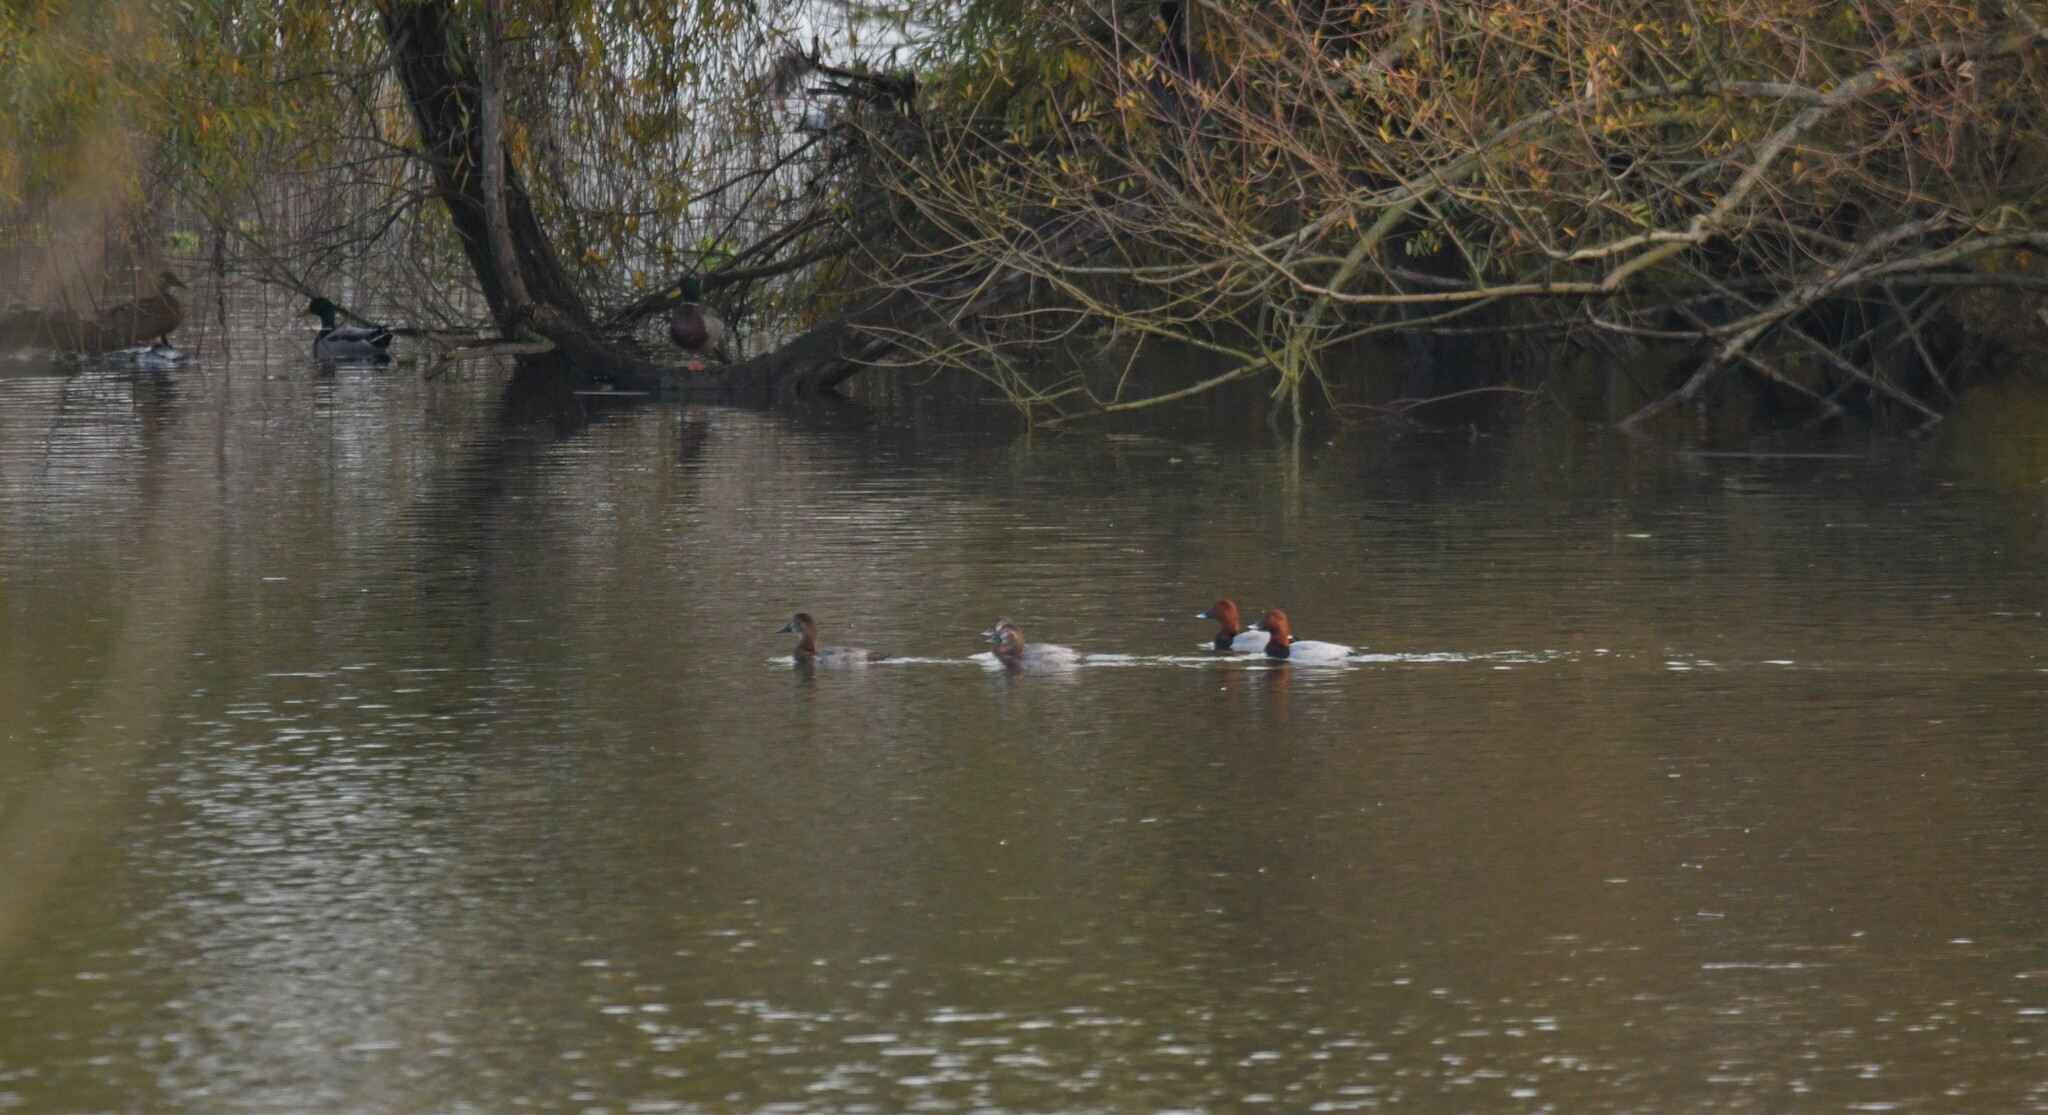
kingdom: Animalia
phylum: Chordata
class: Aves
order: Anseriformes
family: Anatidae
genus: Aythya
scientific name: Aythya ferina
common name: Common pochard
